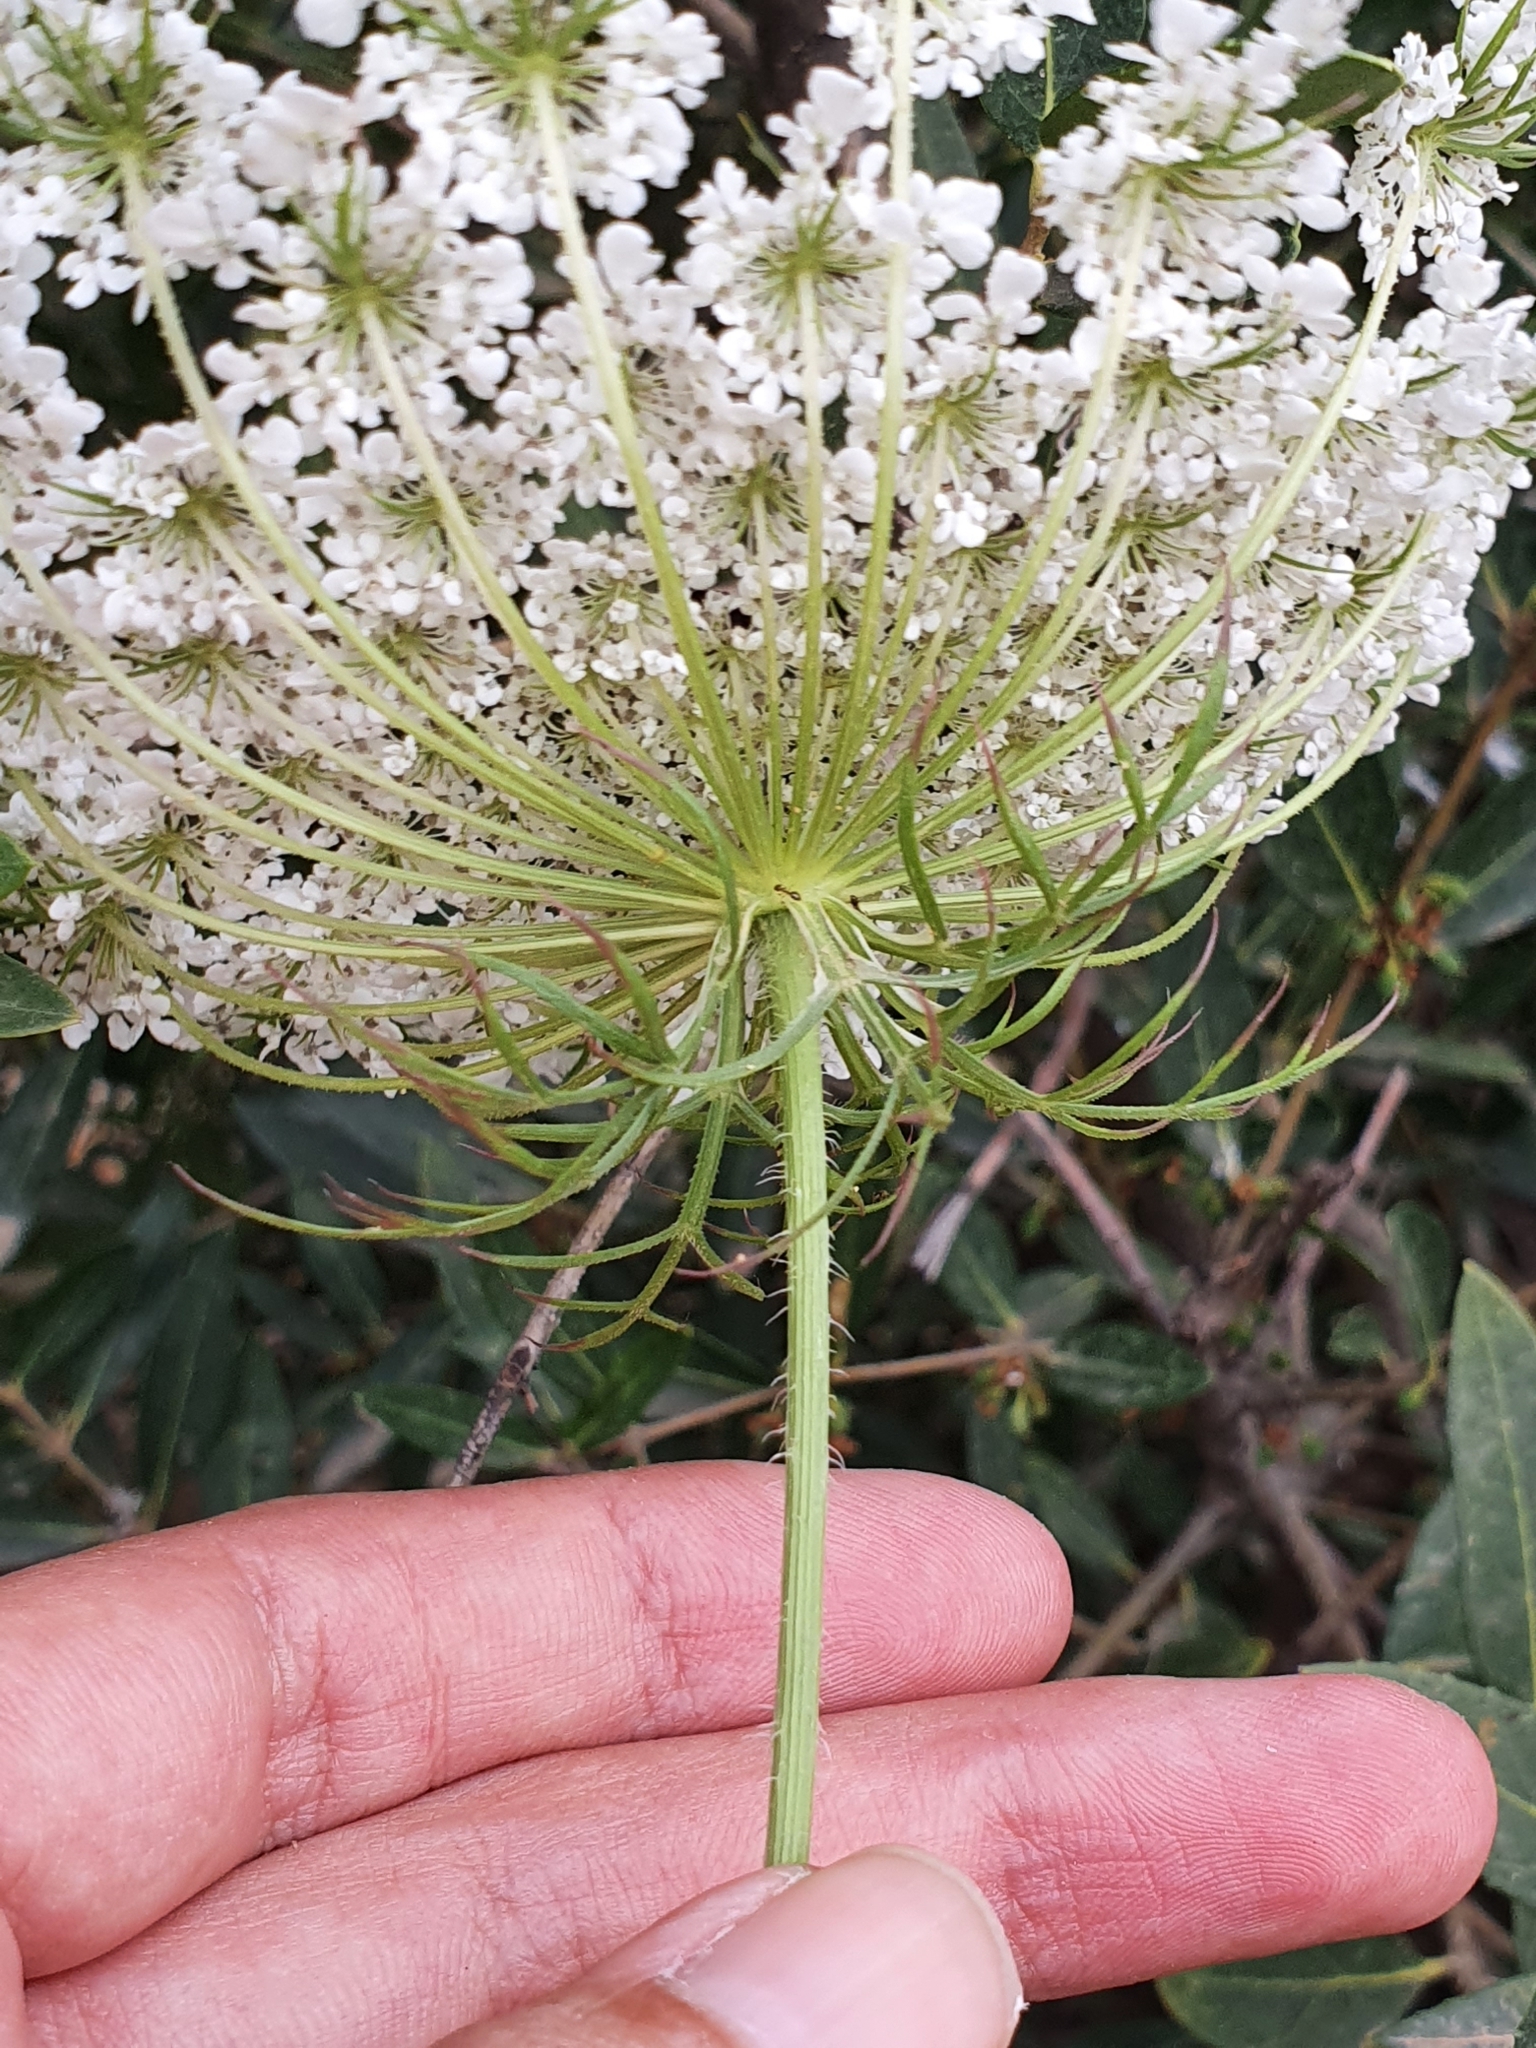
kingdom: Plantae
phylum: Tracheophyta
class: Magnoliopsida
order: Apiales
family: Apiaceae
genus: Daucus
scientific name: Daucus carota
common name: Wild carrot
